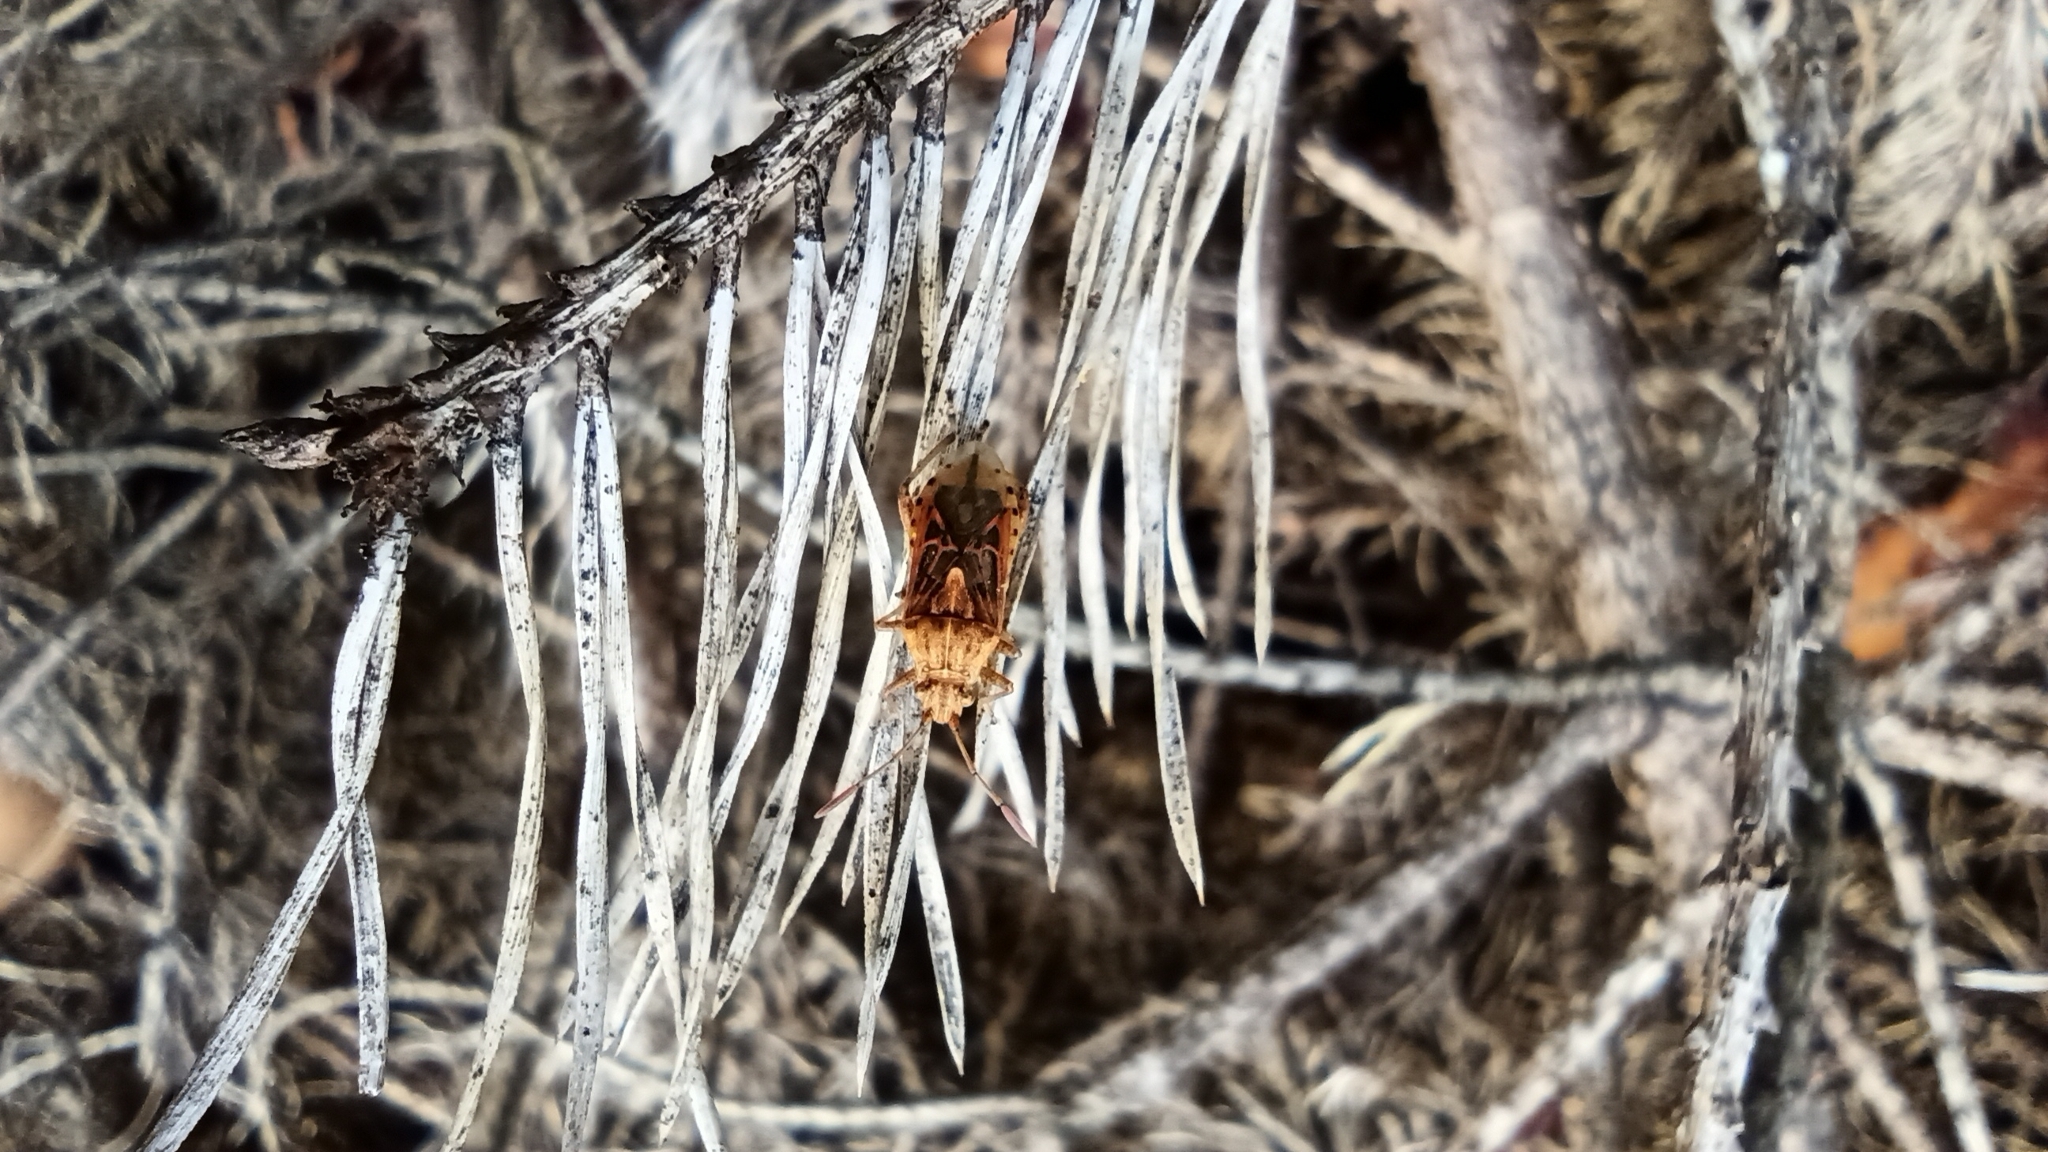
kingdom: Animalia
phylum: Arthropoda
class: Insecta
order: Hemiptera
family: Rhopalidae
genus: Stictopleurus
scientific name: Stictopleurus abutilon
